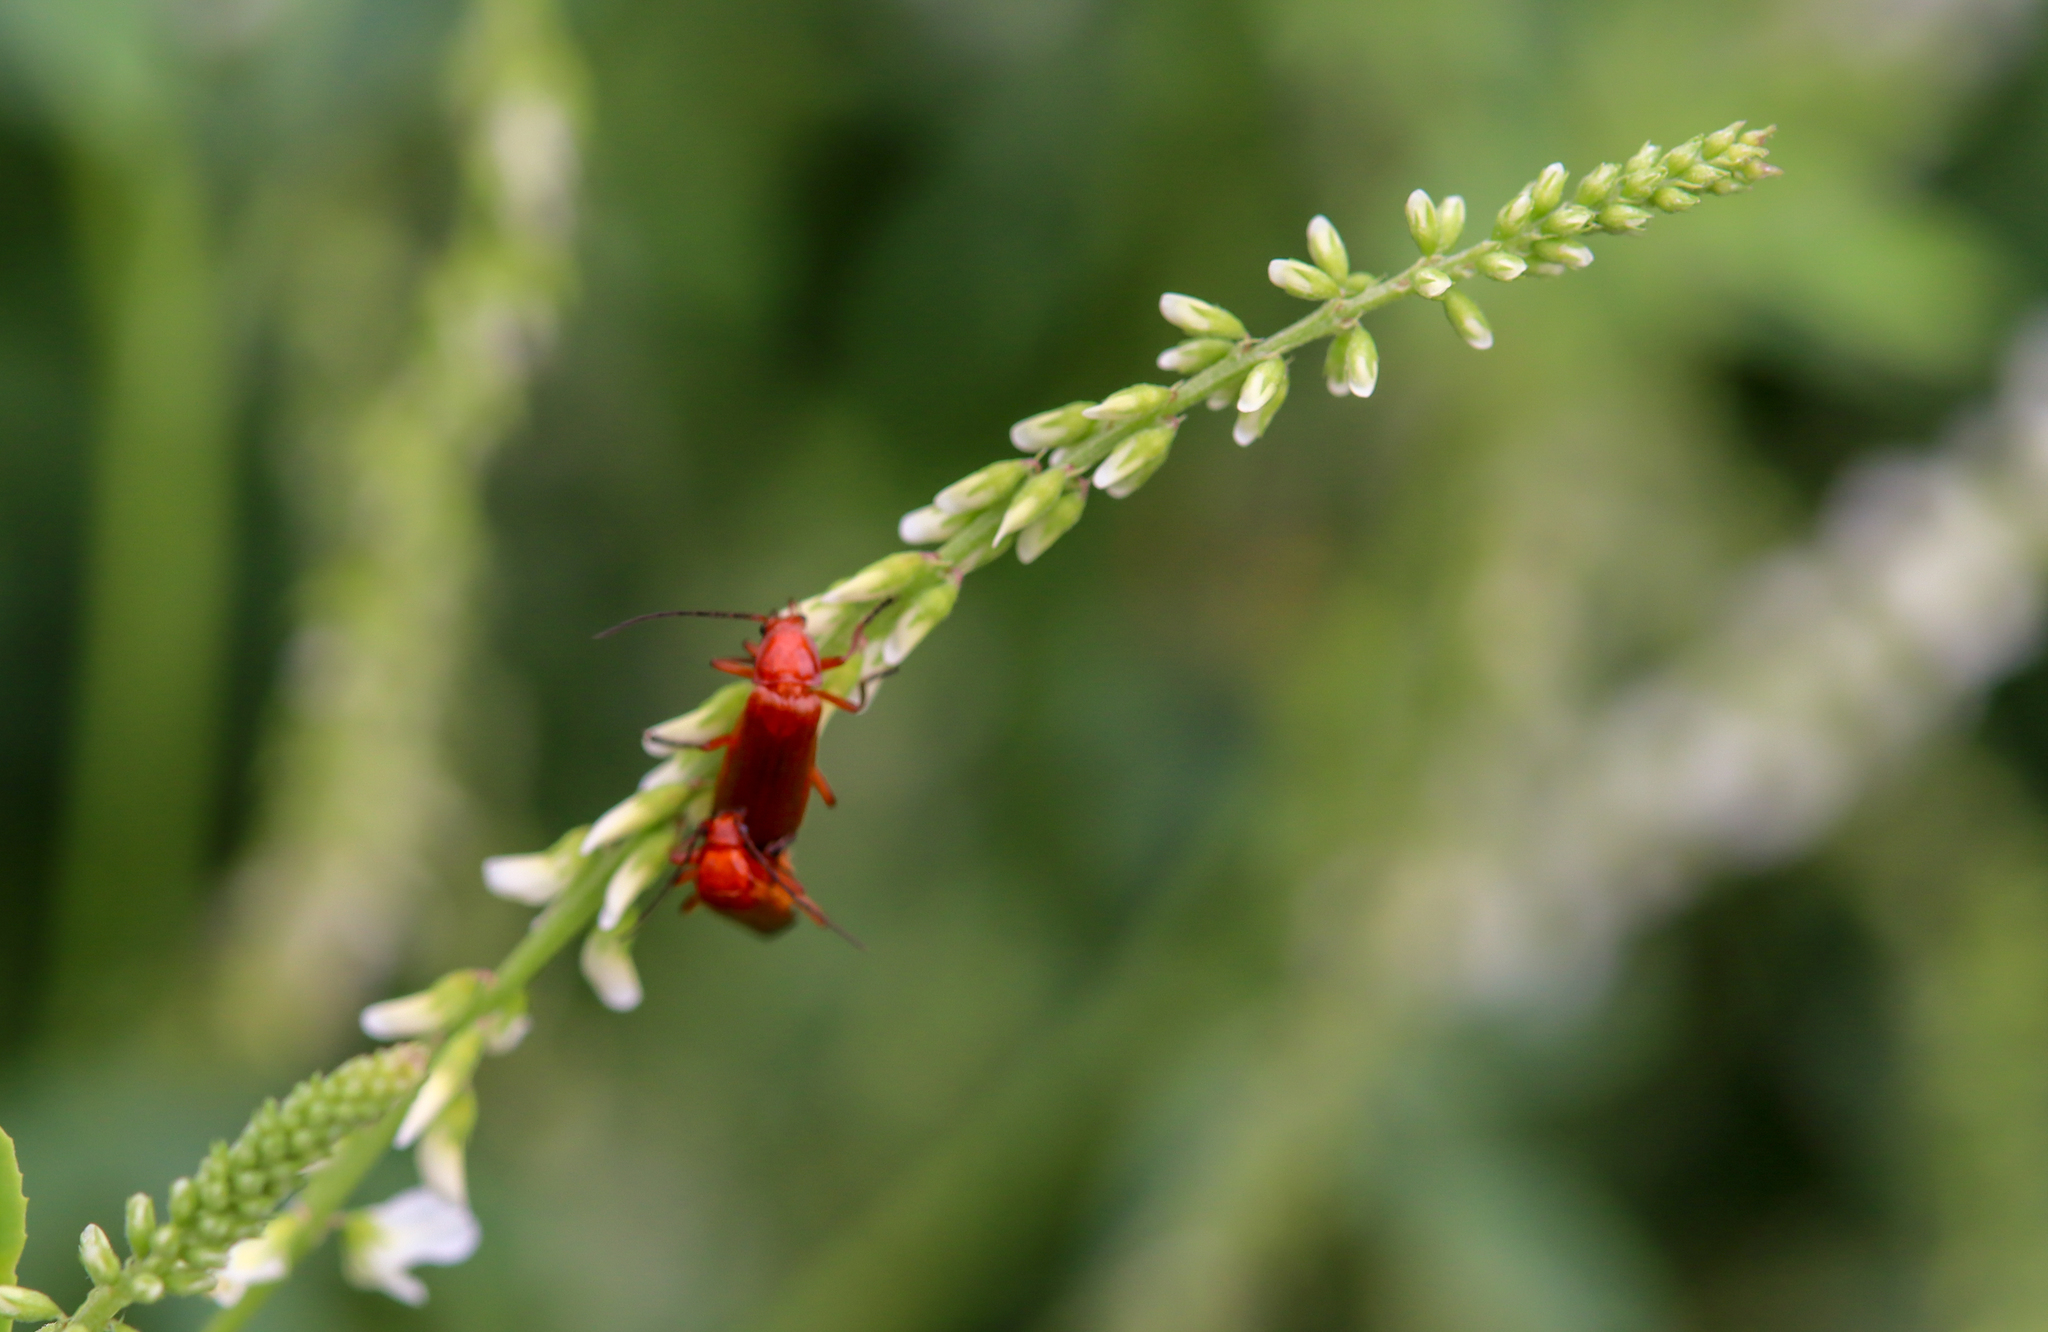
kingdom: Animalia
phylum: Arthropoda
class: Insecta
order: Coleoptera
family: Cantharidae
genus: Rhagonycha
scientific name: Rhagonycha fulva
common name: Common red soldier beetle
